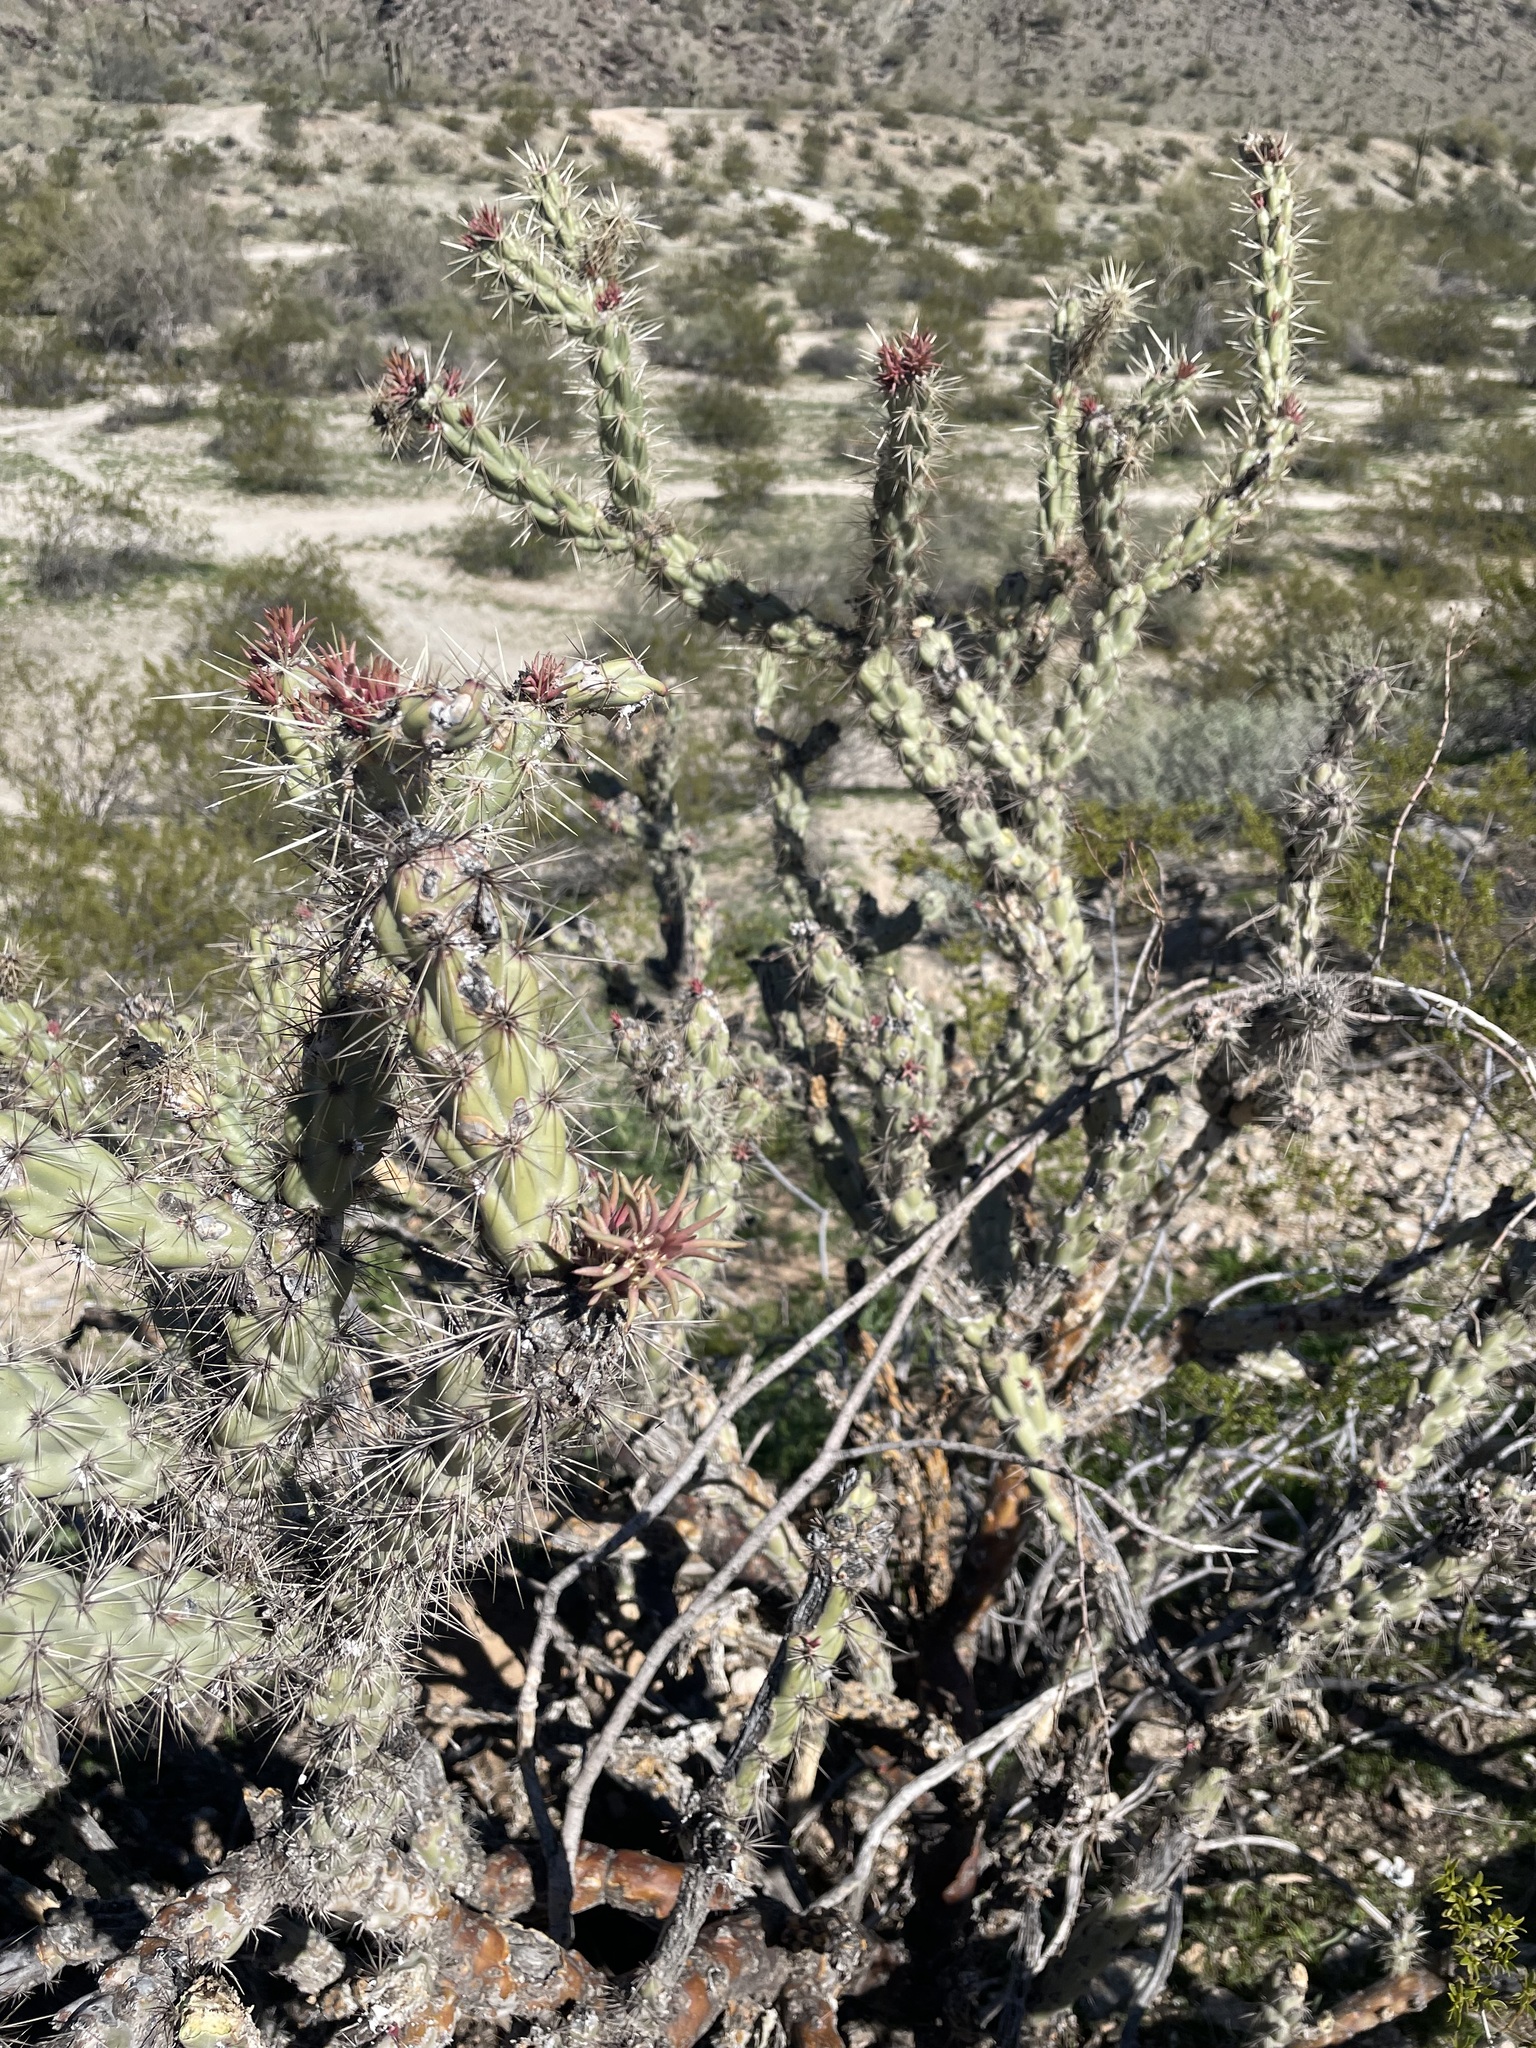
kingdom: Plantae
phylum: Tracheophyta
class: Magnoliopsida
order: Caryophyllales
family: Cactaceae
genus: Cylindropuntia
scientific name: Cylindropuntia acanthocarpa
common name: Buckhorn cholla
